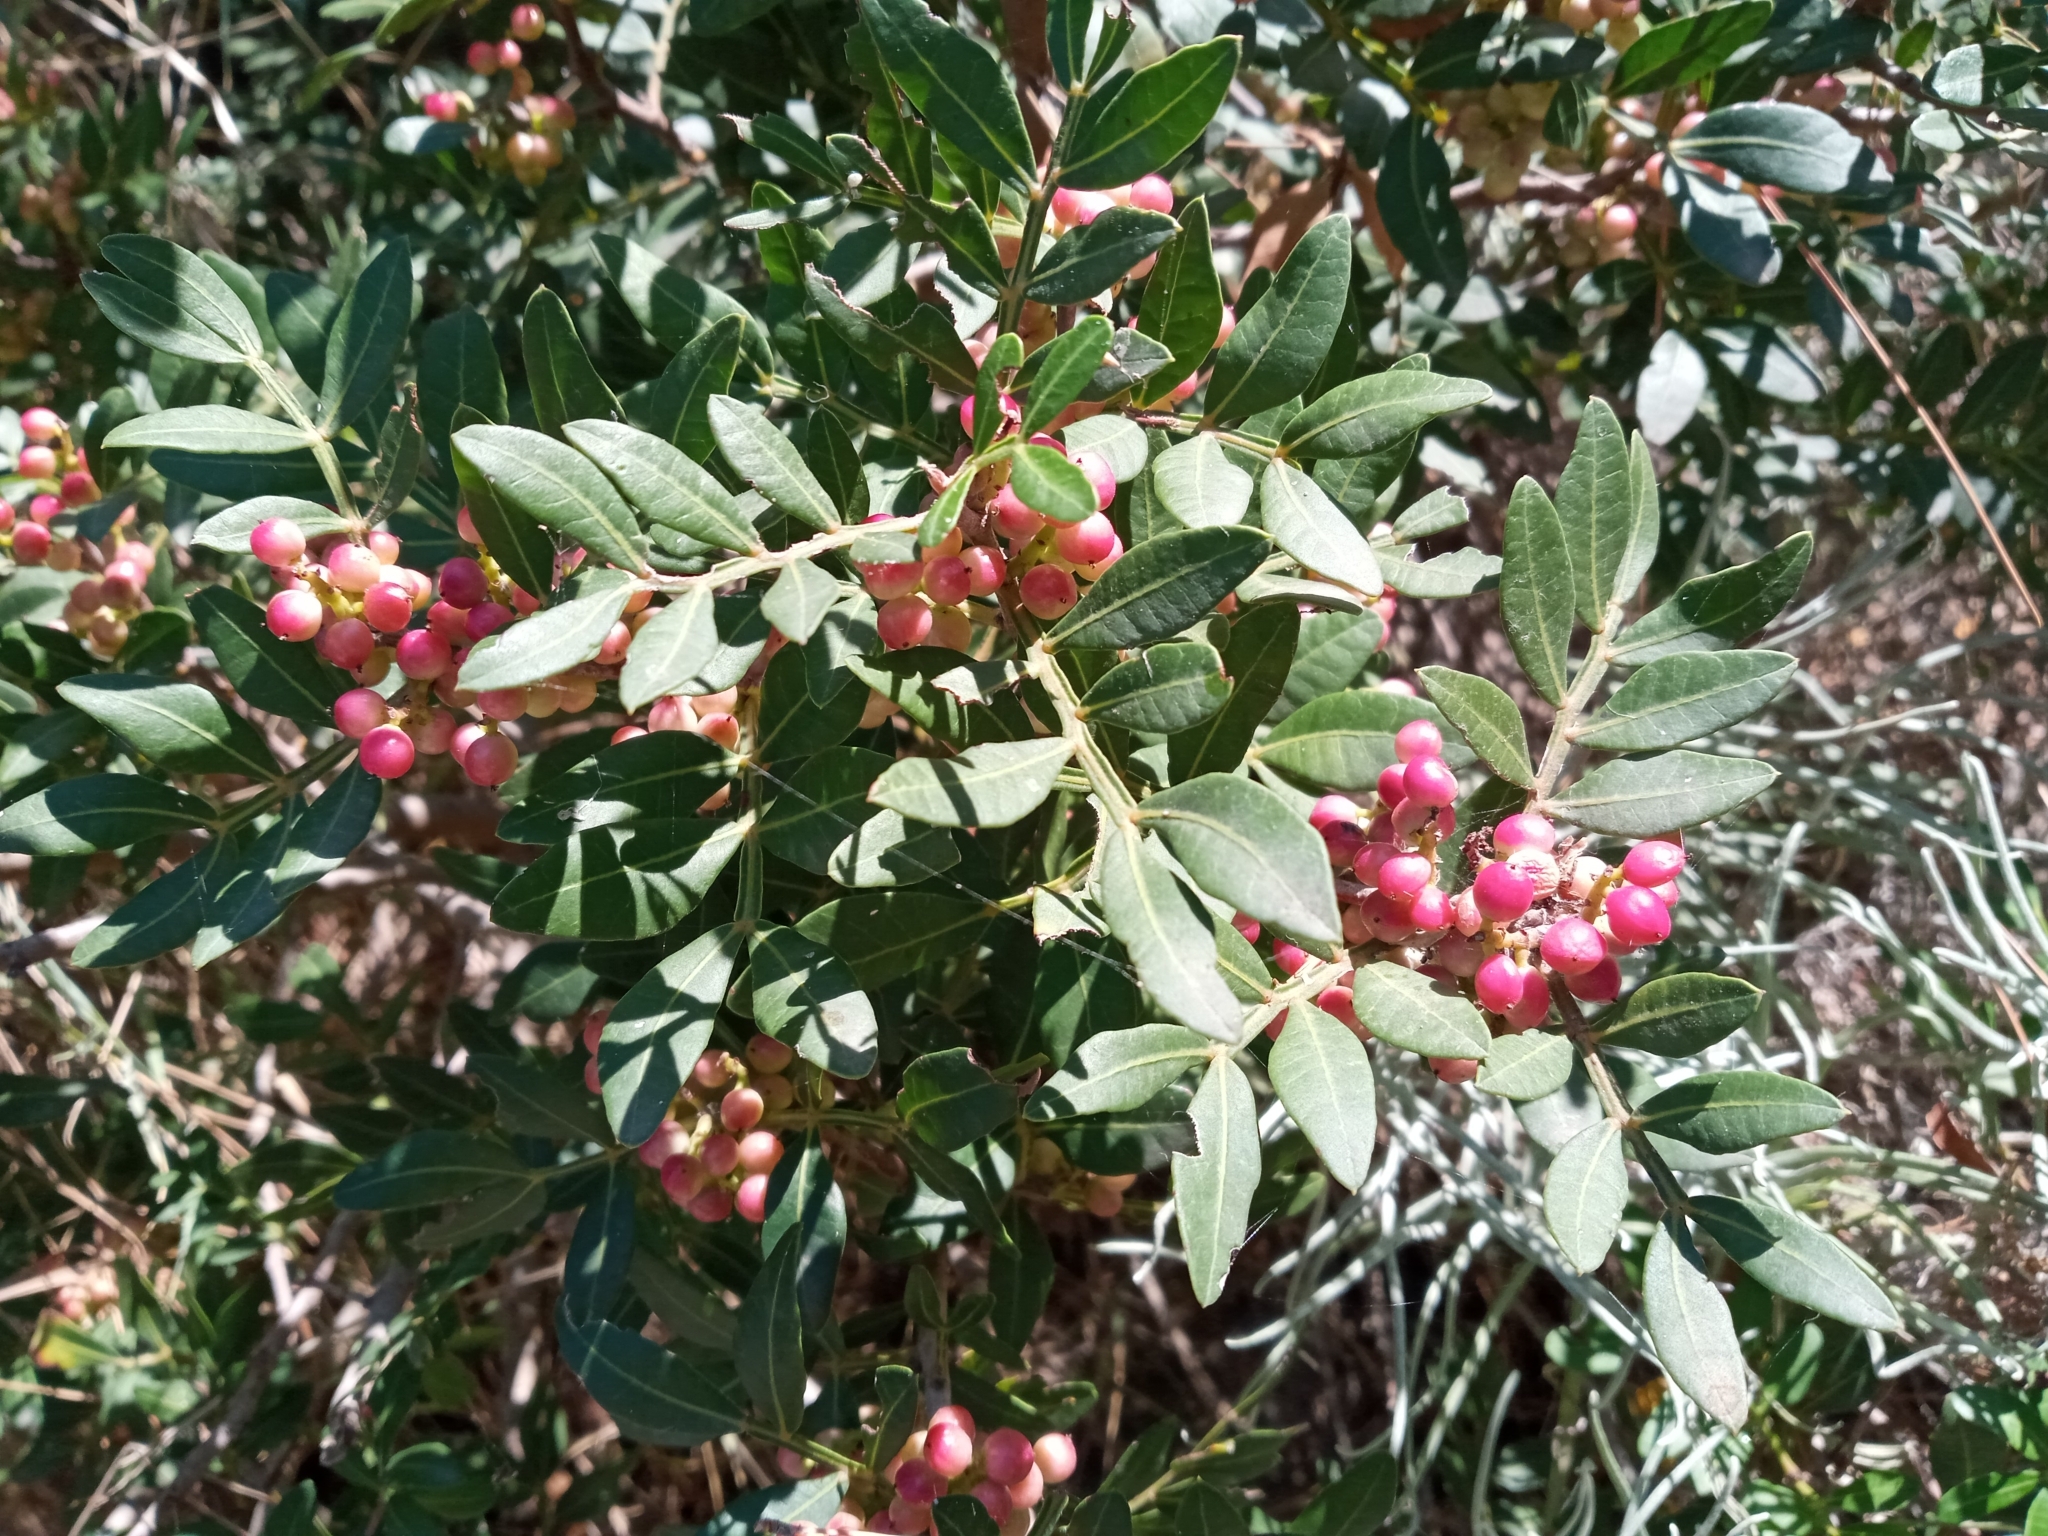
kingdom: Plantae
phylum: Tracheophyta
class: Magnoliopsida
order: Sapindales
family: Anacardiaceae
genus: Pistacia
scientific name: Pistacia lentiscus
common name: Lentisk
